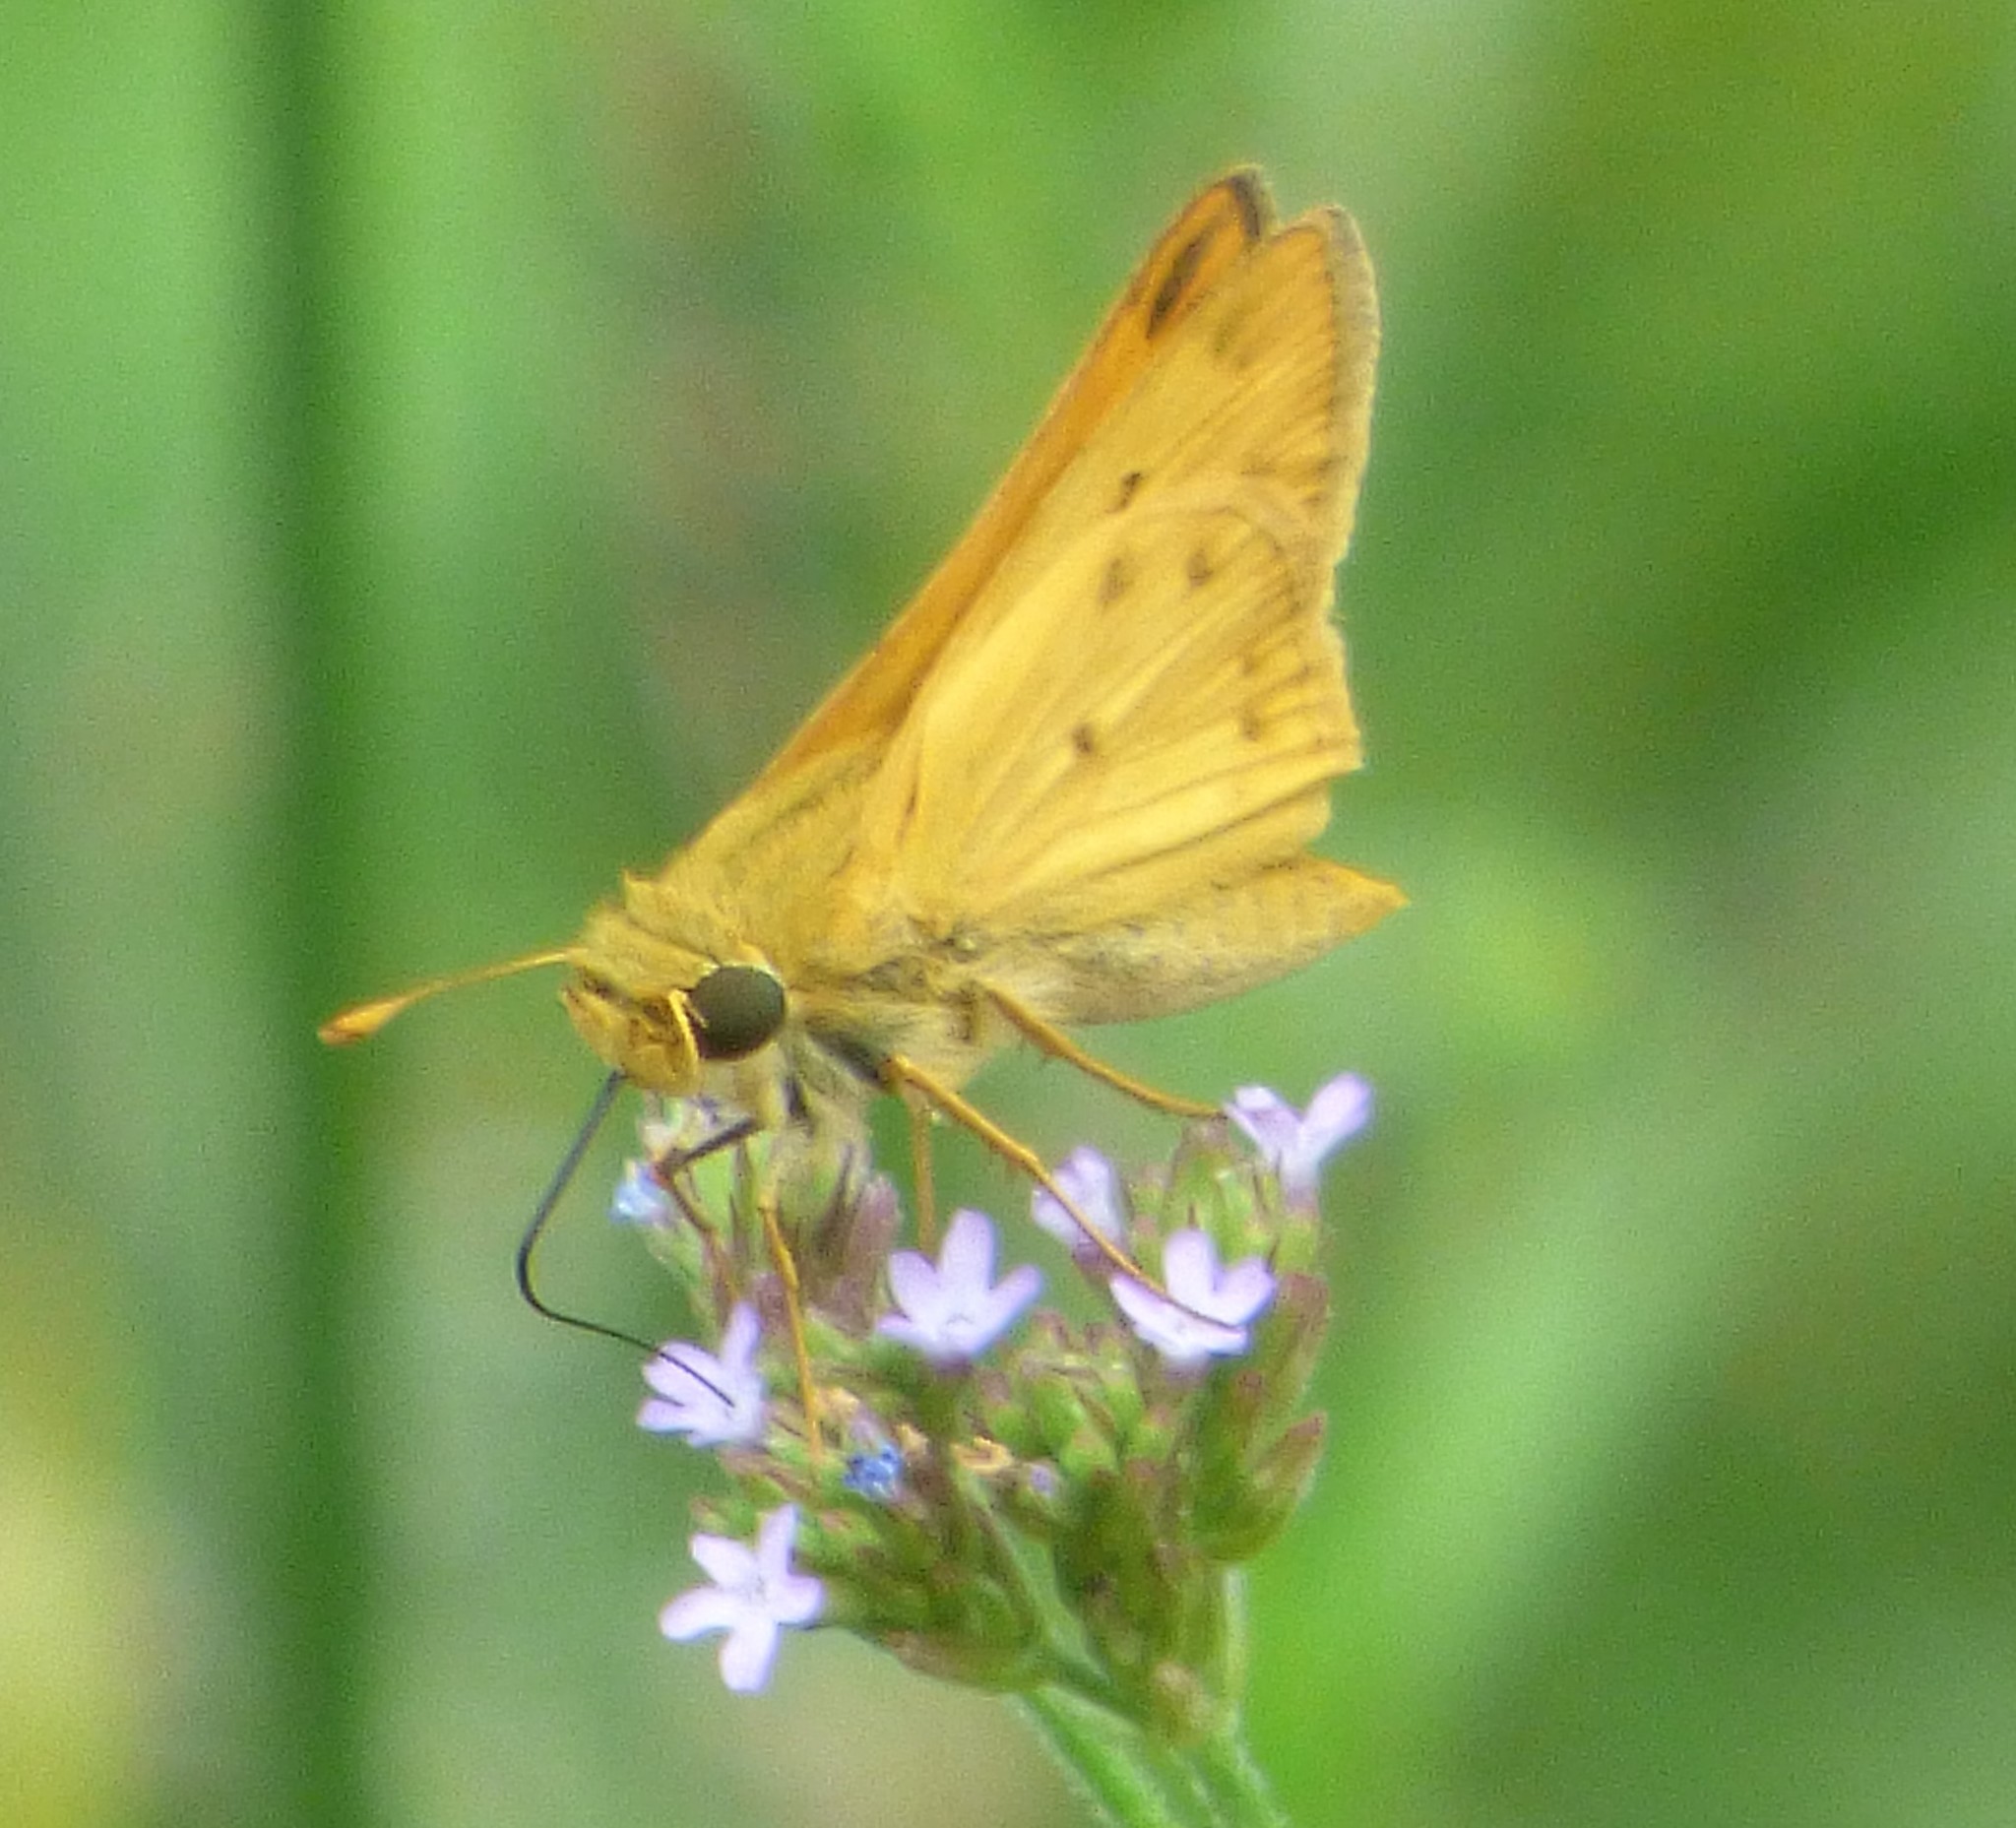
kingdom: Animalia
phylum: Arthropoda
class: Insecta
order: Lepidoptera
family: Hesperiidae
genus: Hylephila
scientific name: Hylephila phyleus
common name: Fiery skipper
